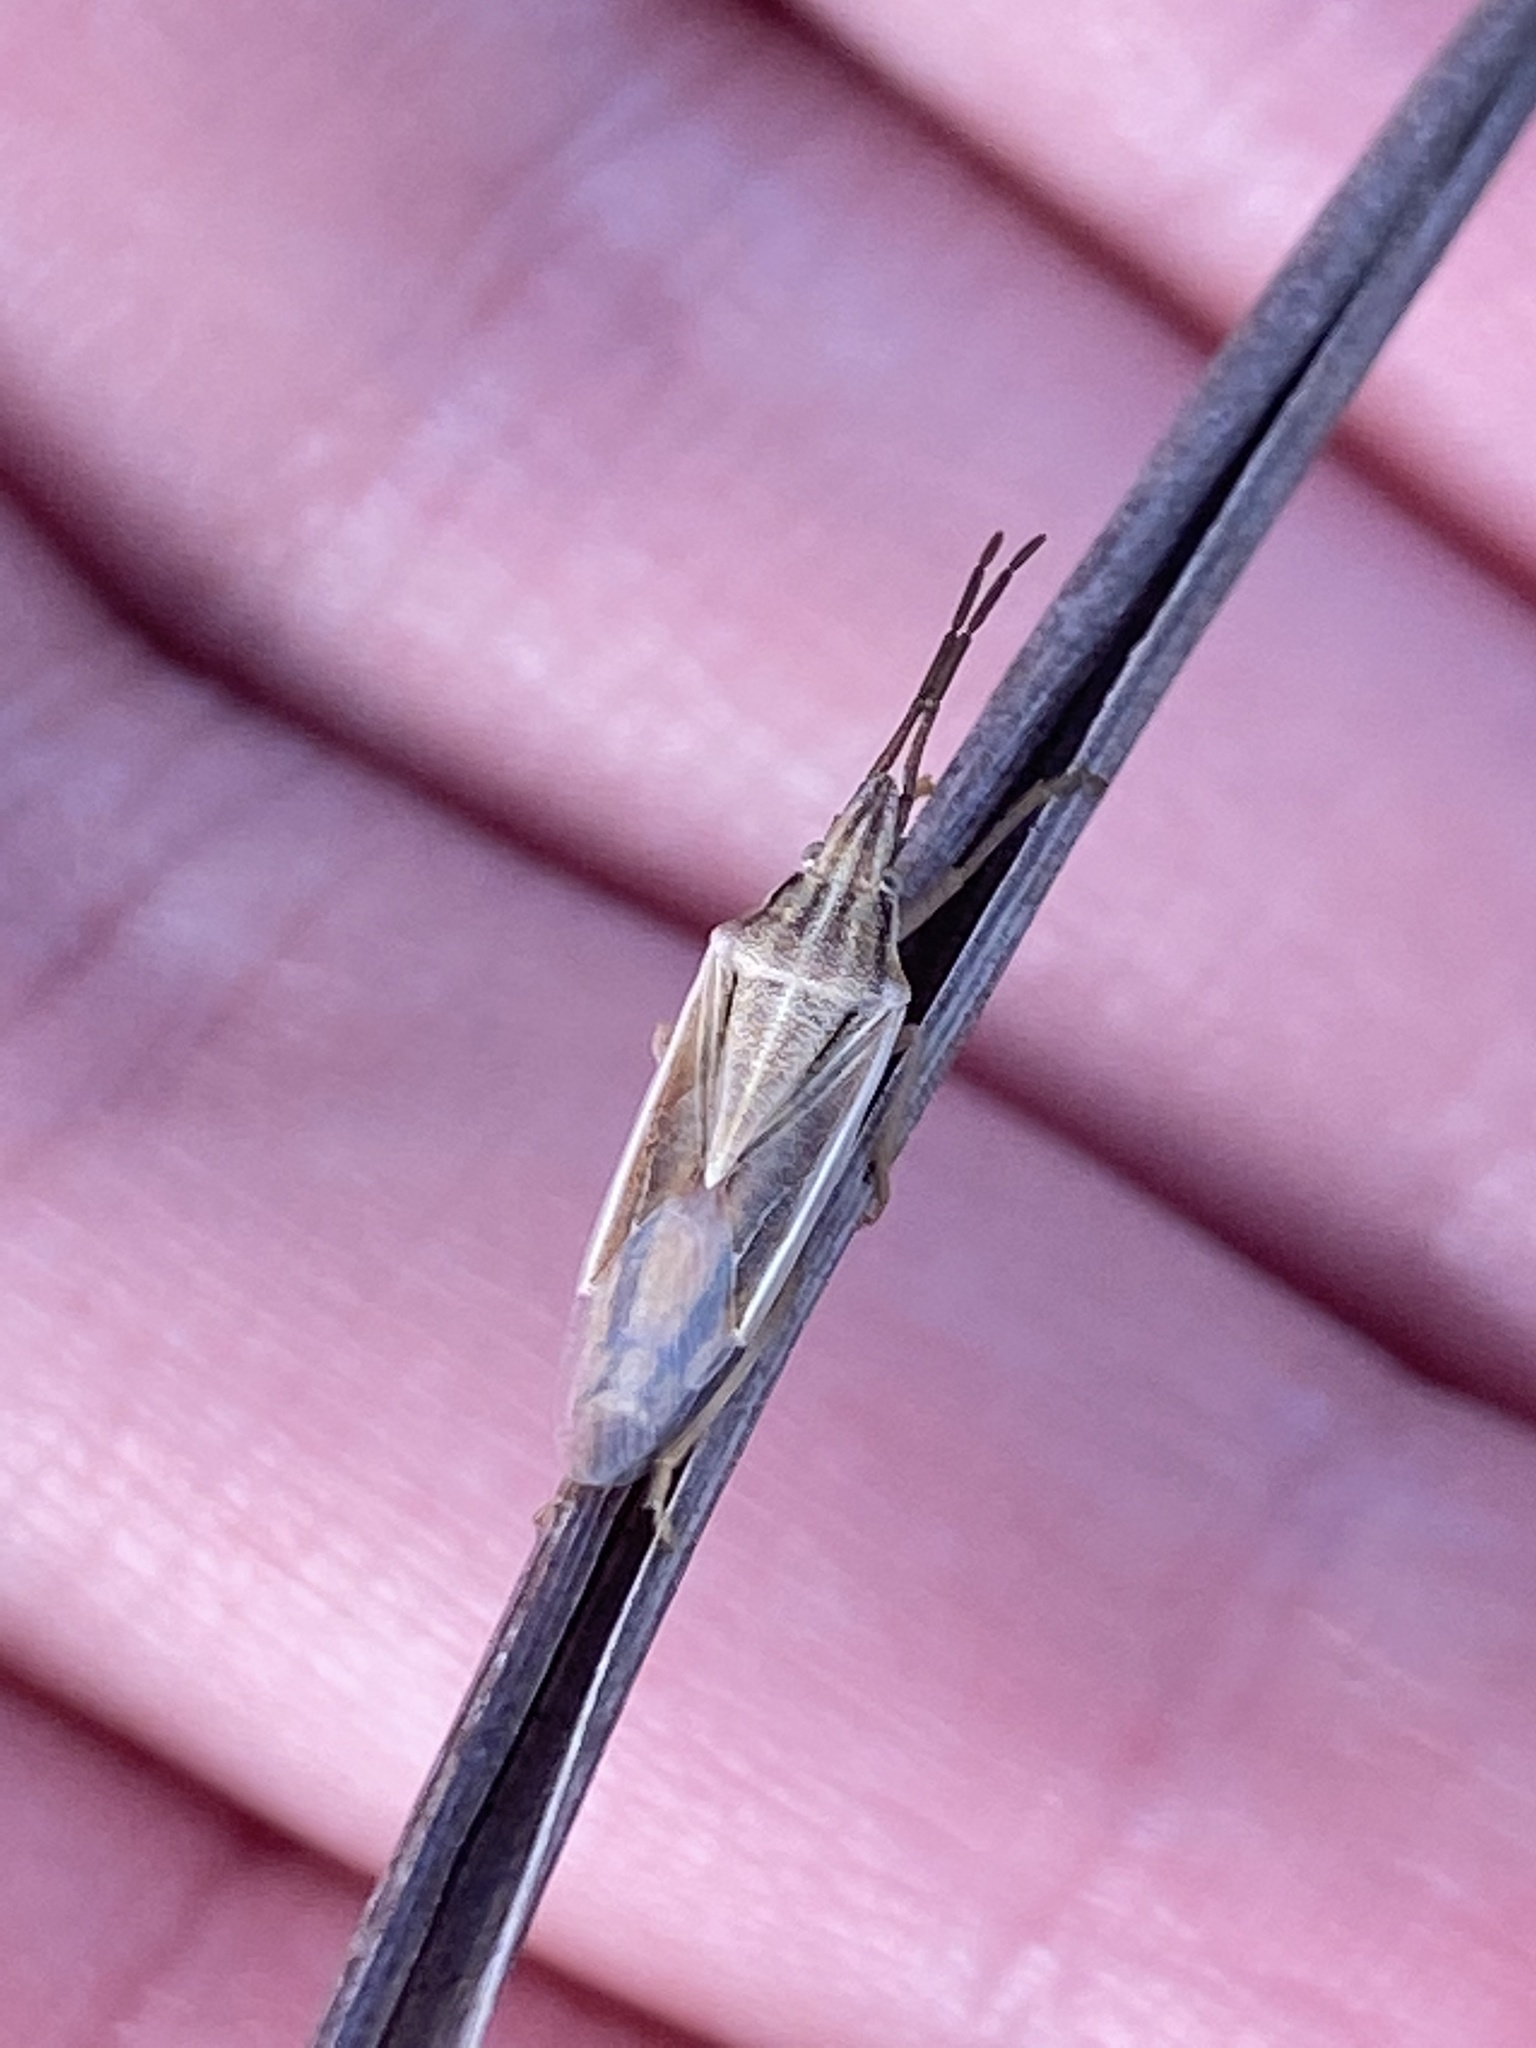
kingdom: Animalia
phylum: Arthropoda
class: Insecta
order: Hemiptera
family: Pentatomidae
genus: Mecidea
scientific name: Mecidea
